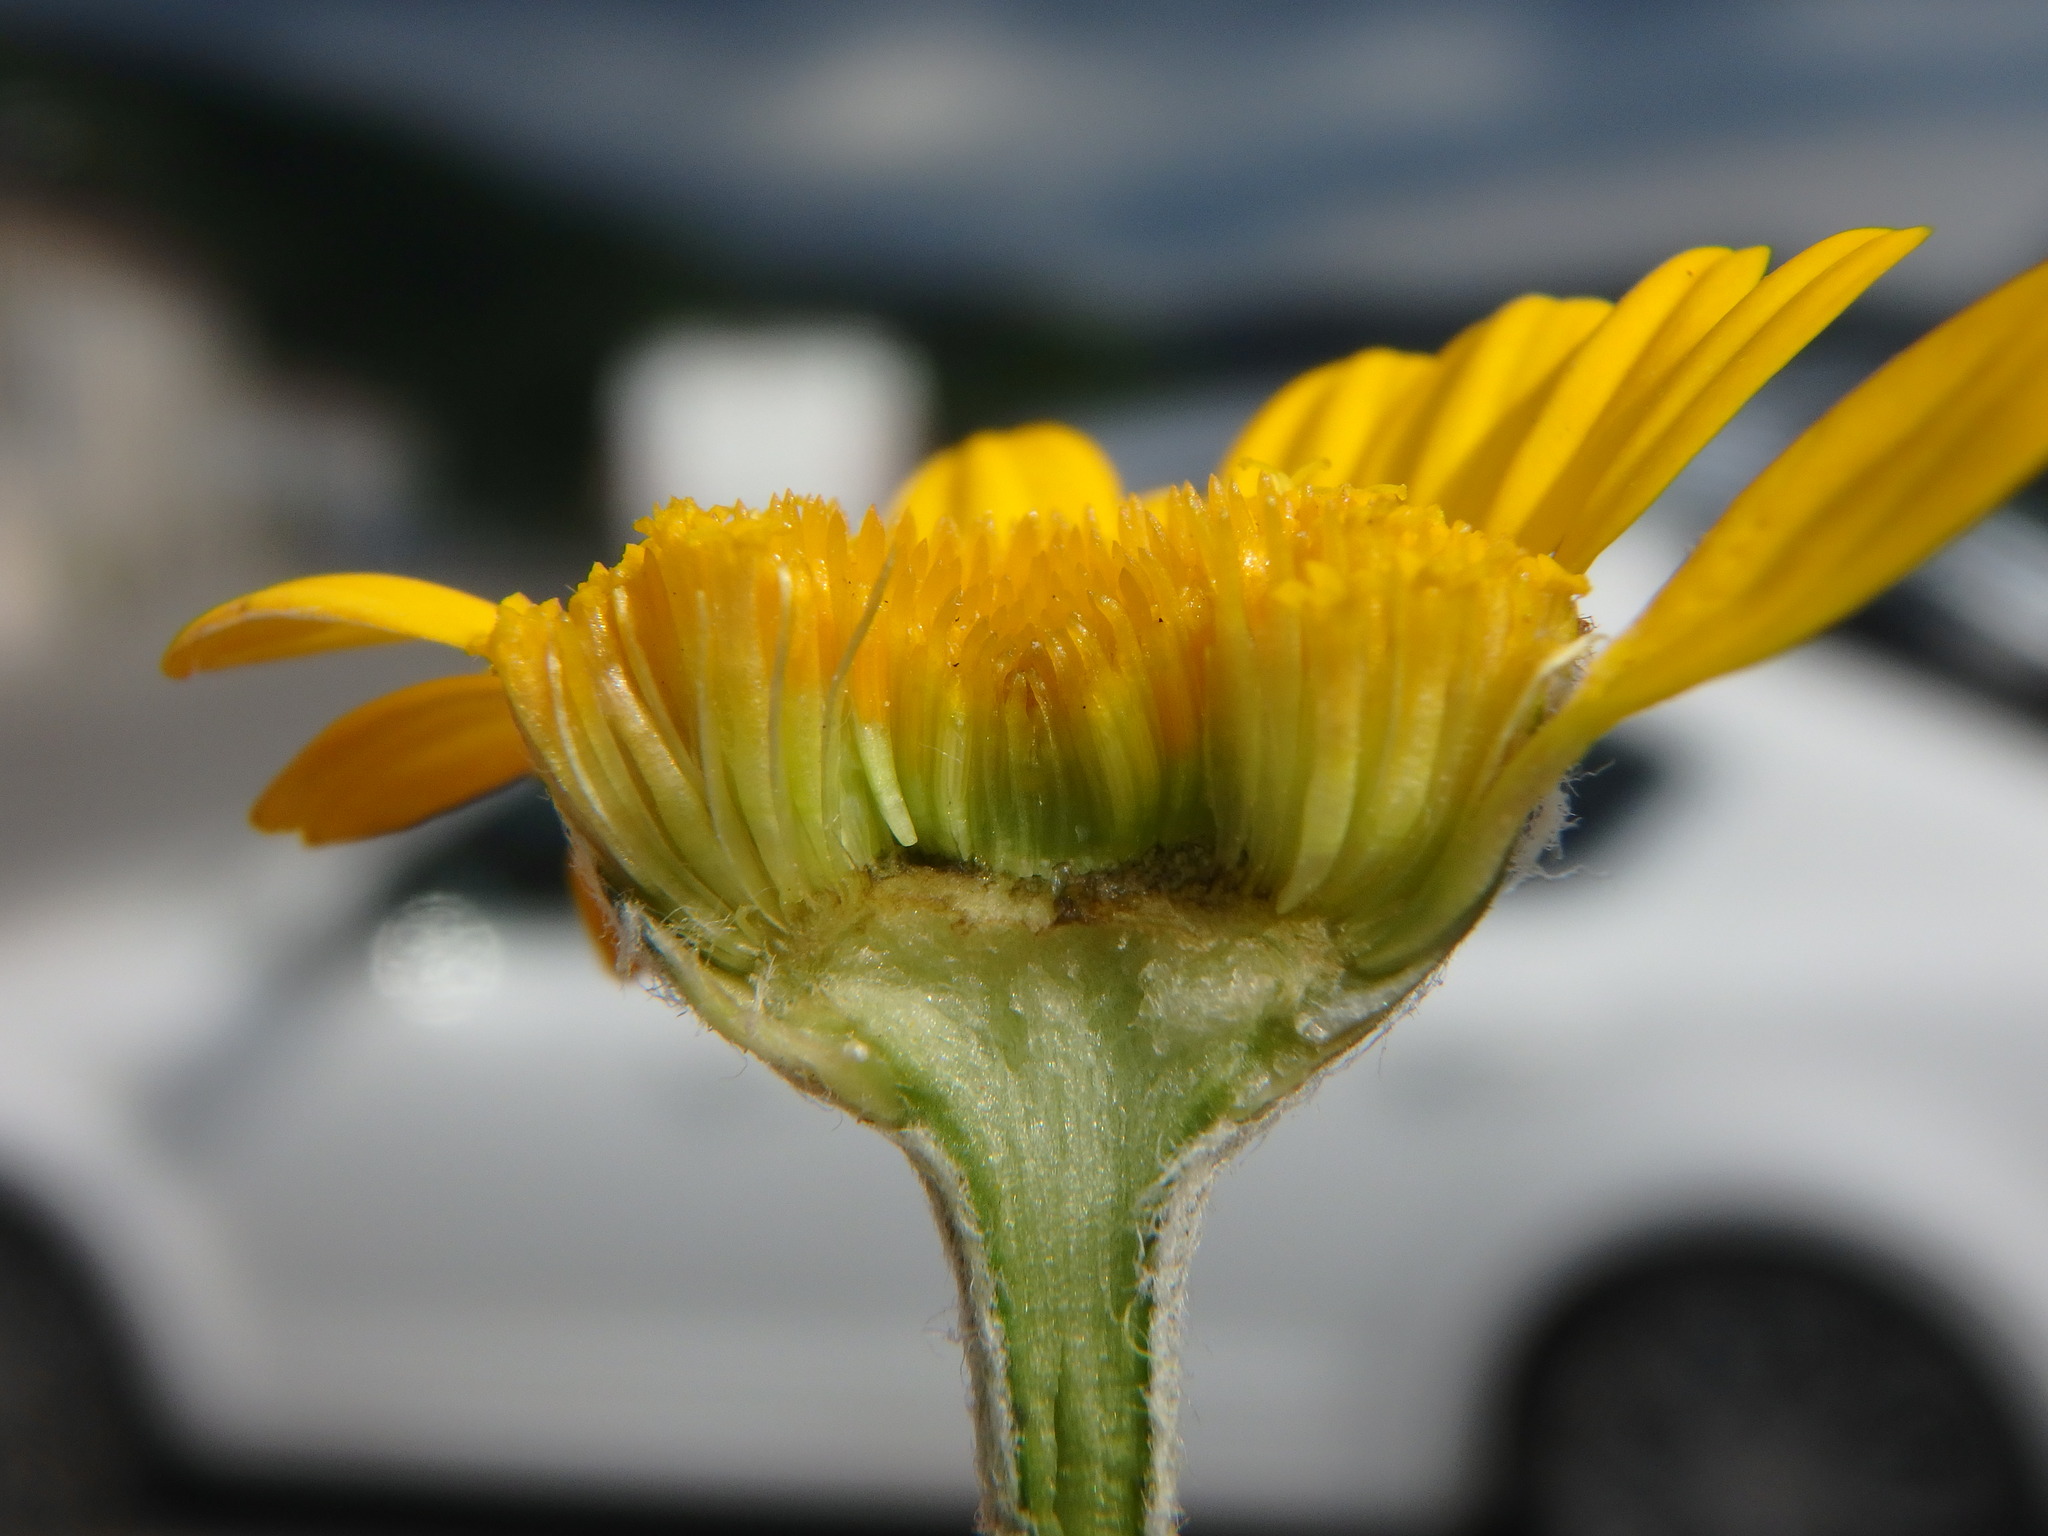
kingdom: Plantae
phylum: Tracheophyta
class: Magnoliopsida
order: Asterales
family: Asteraceae
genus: Cota
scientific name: Cota tinctoria
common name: Golden chamomile
